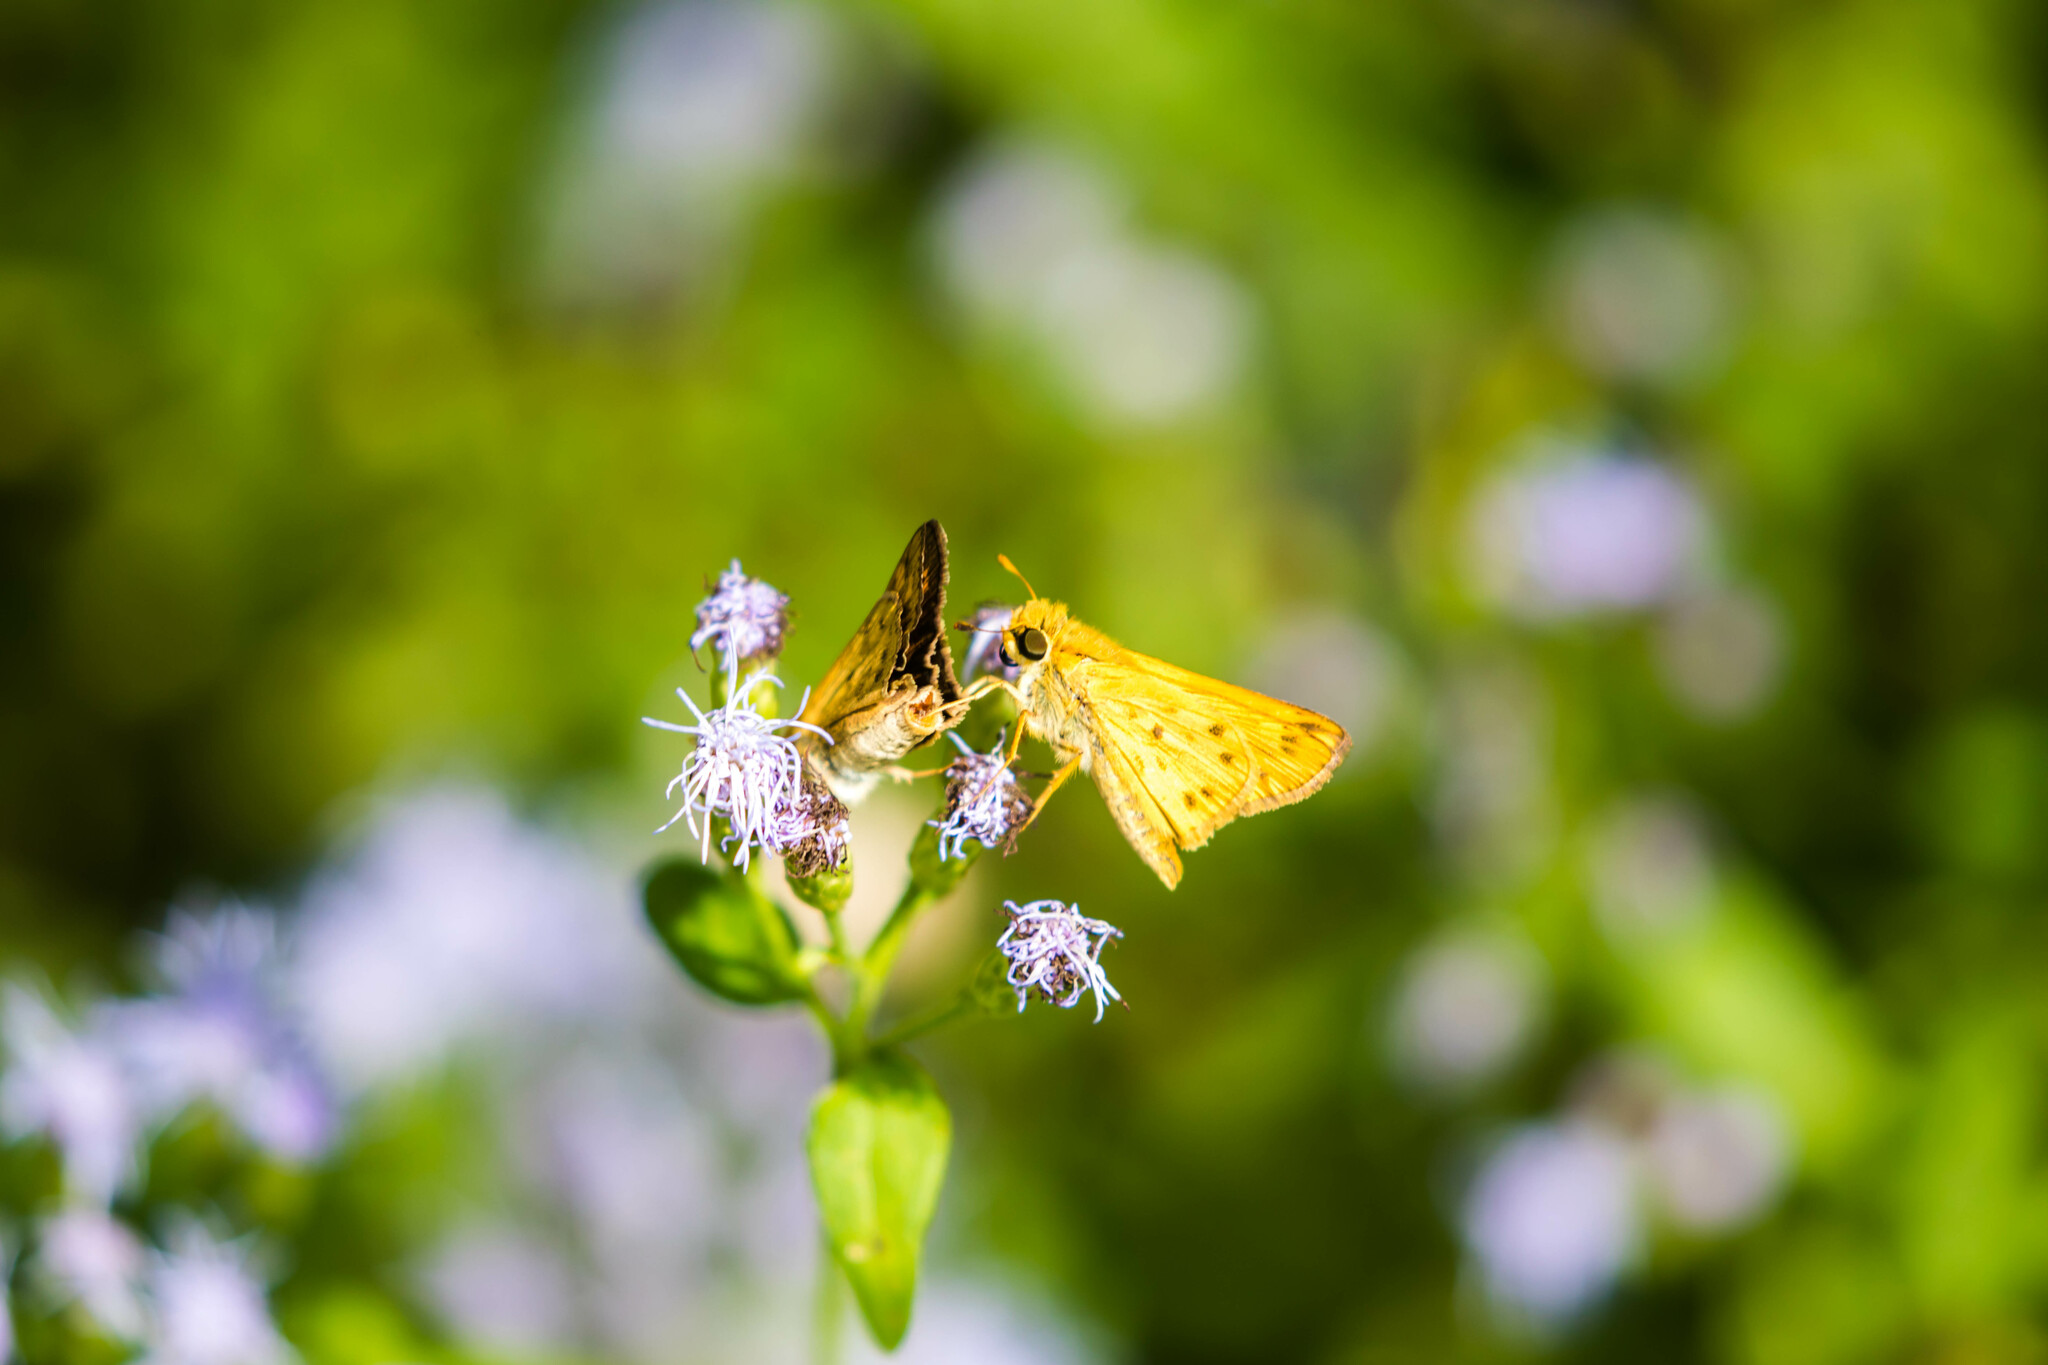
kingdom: Animalia
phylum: Arthropoda
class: Insecta
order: Lepidoptera
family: Hesperiidae
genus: Hylephila
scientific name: Hylephila phyleus
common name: Fiery skipper
